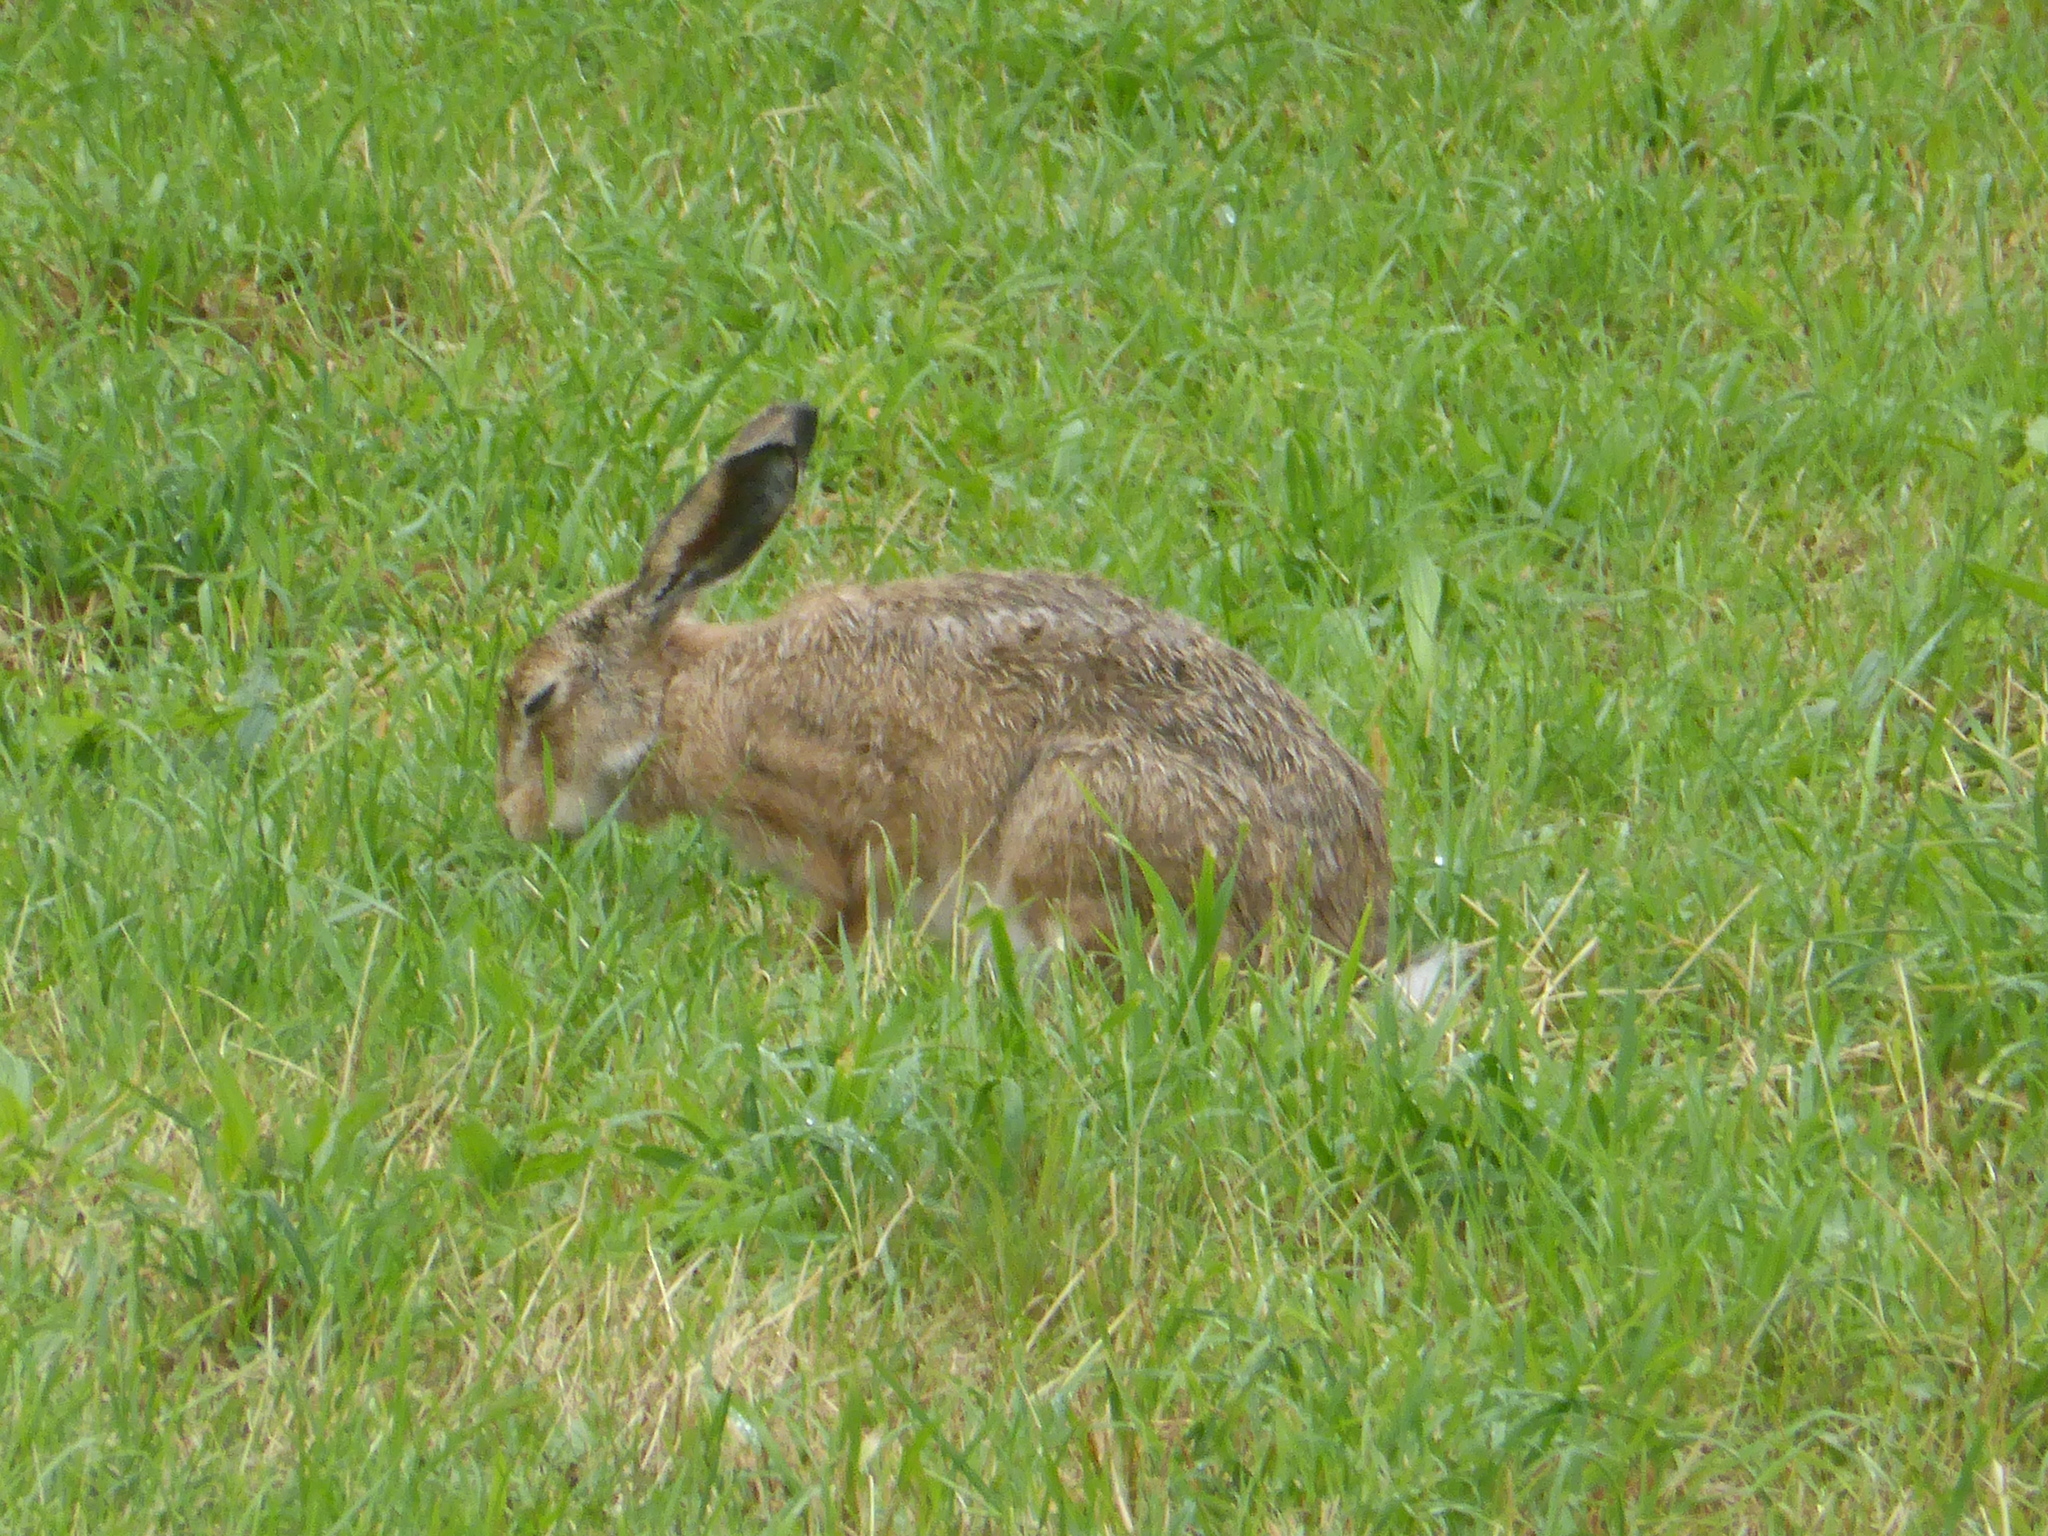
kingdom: Animalia
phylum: Chordata
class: Mammalia
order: Lagomorpha
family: Leporidae
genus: Lepus
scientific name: Lepus europaeus
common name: European hare
